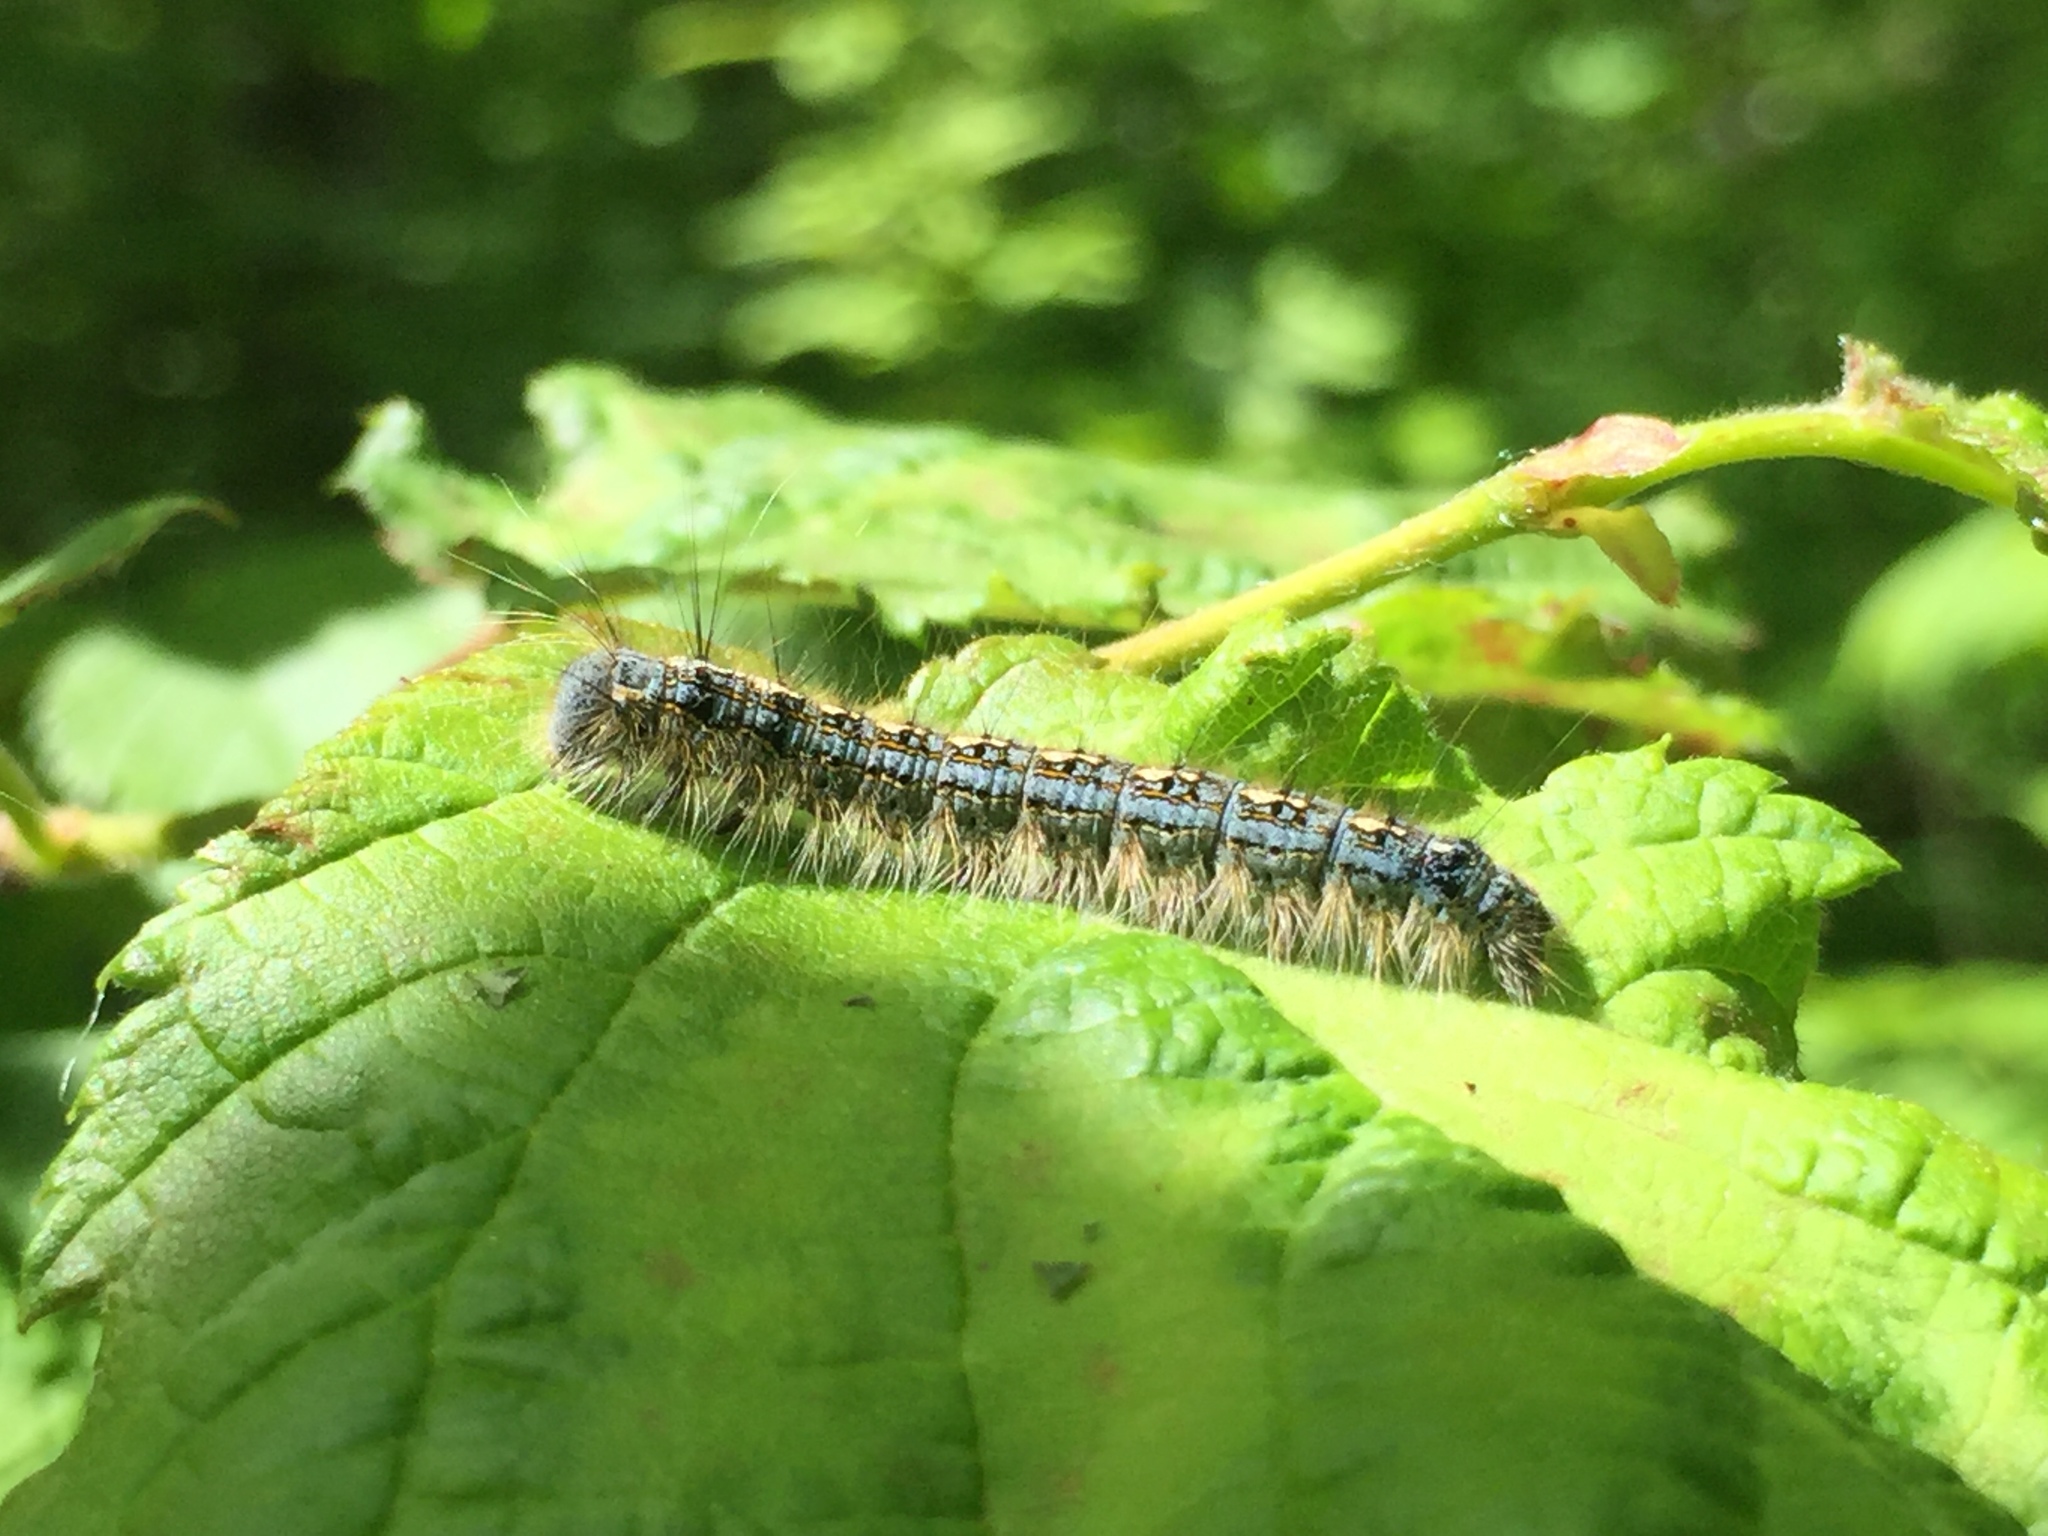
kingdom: Animalia
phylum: Arthropoda
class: Insecta
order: Lepidoptera
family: Lasiocampidae
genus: Malacosoma
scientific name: Malacosoma disstria
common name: Forest tent caterpillar
